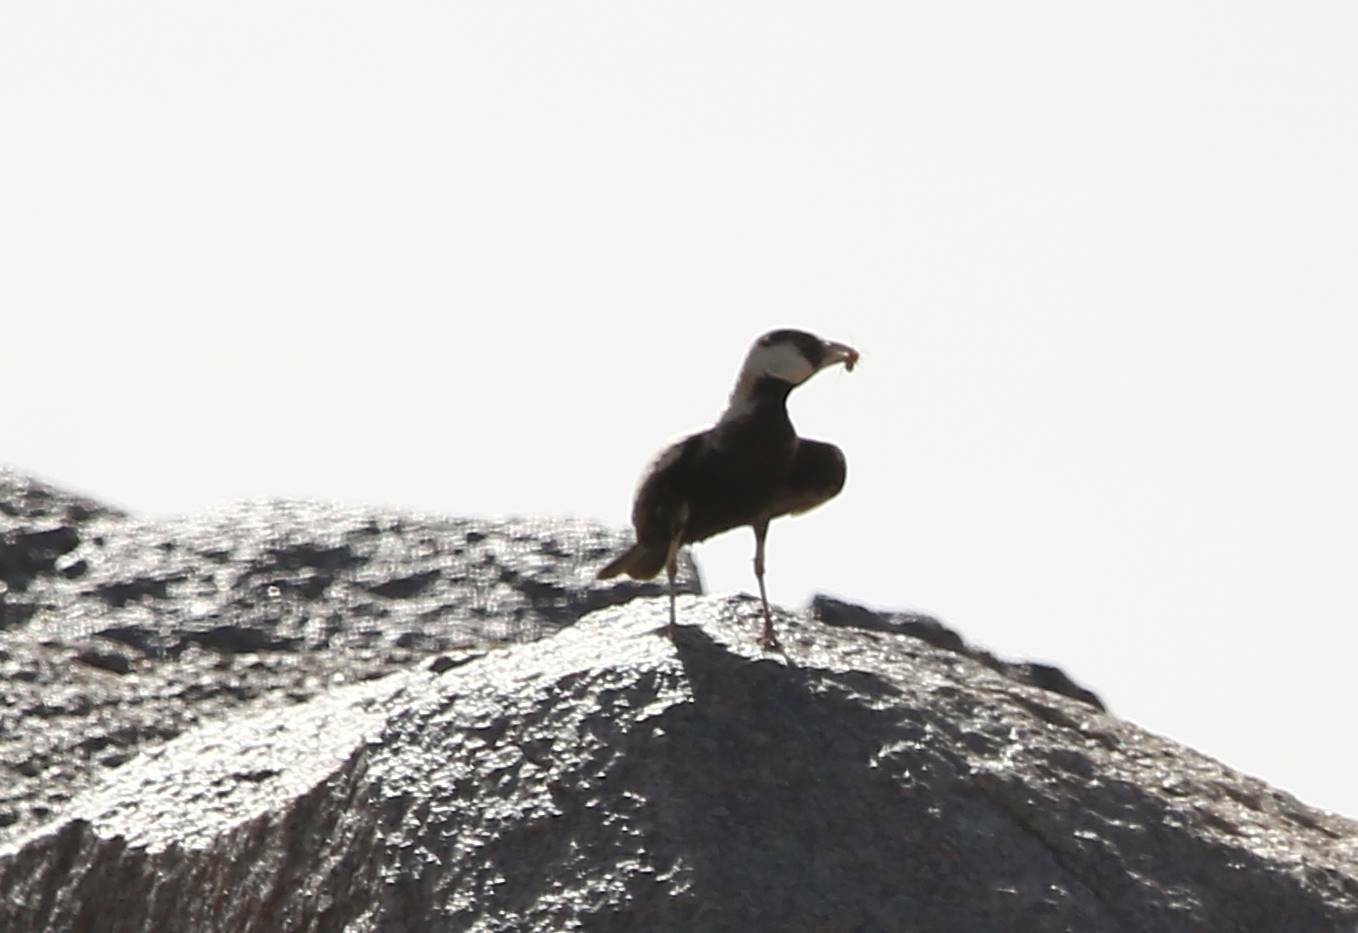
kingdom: Animalia
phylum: Chordata
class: Aves
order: Passeriformes
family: Alaudidae
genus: Eremopterix
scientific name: Eremopterix nigriceps
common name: Black-crowned sparrow-lark
